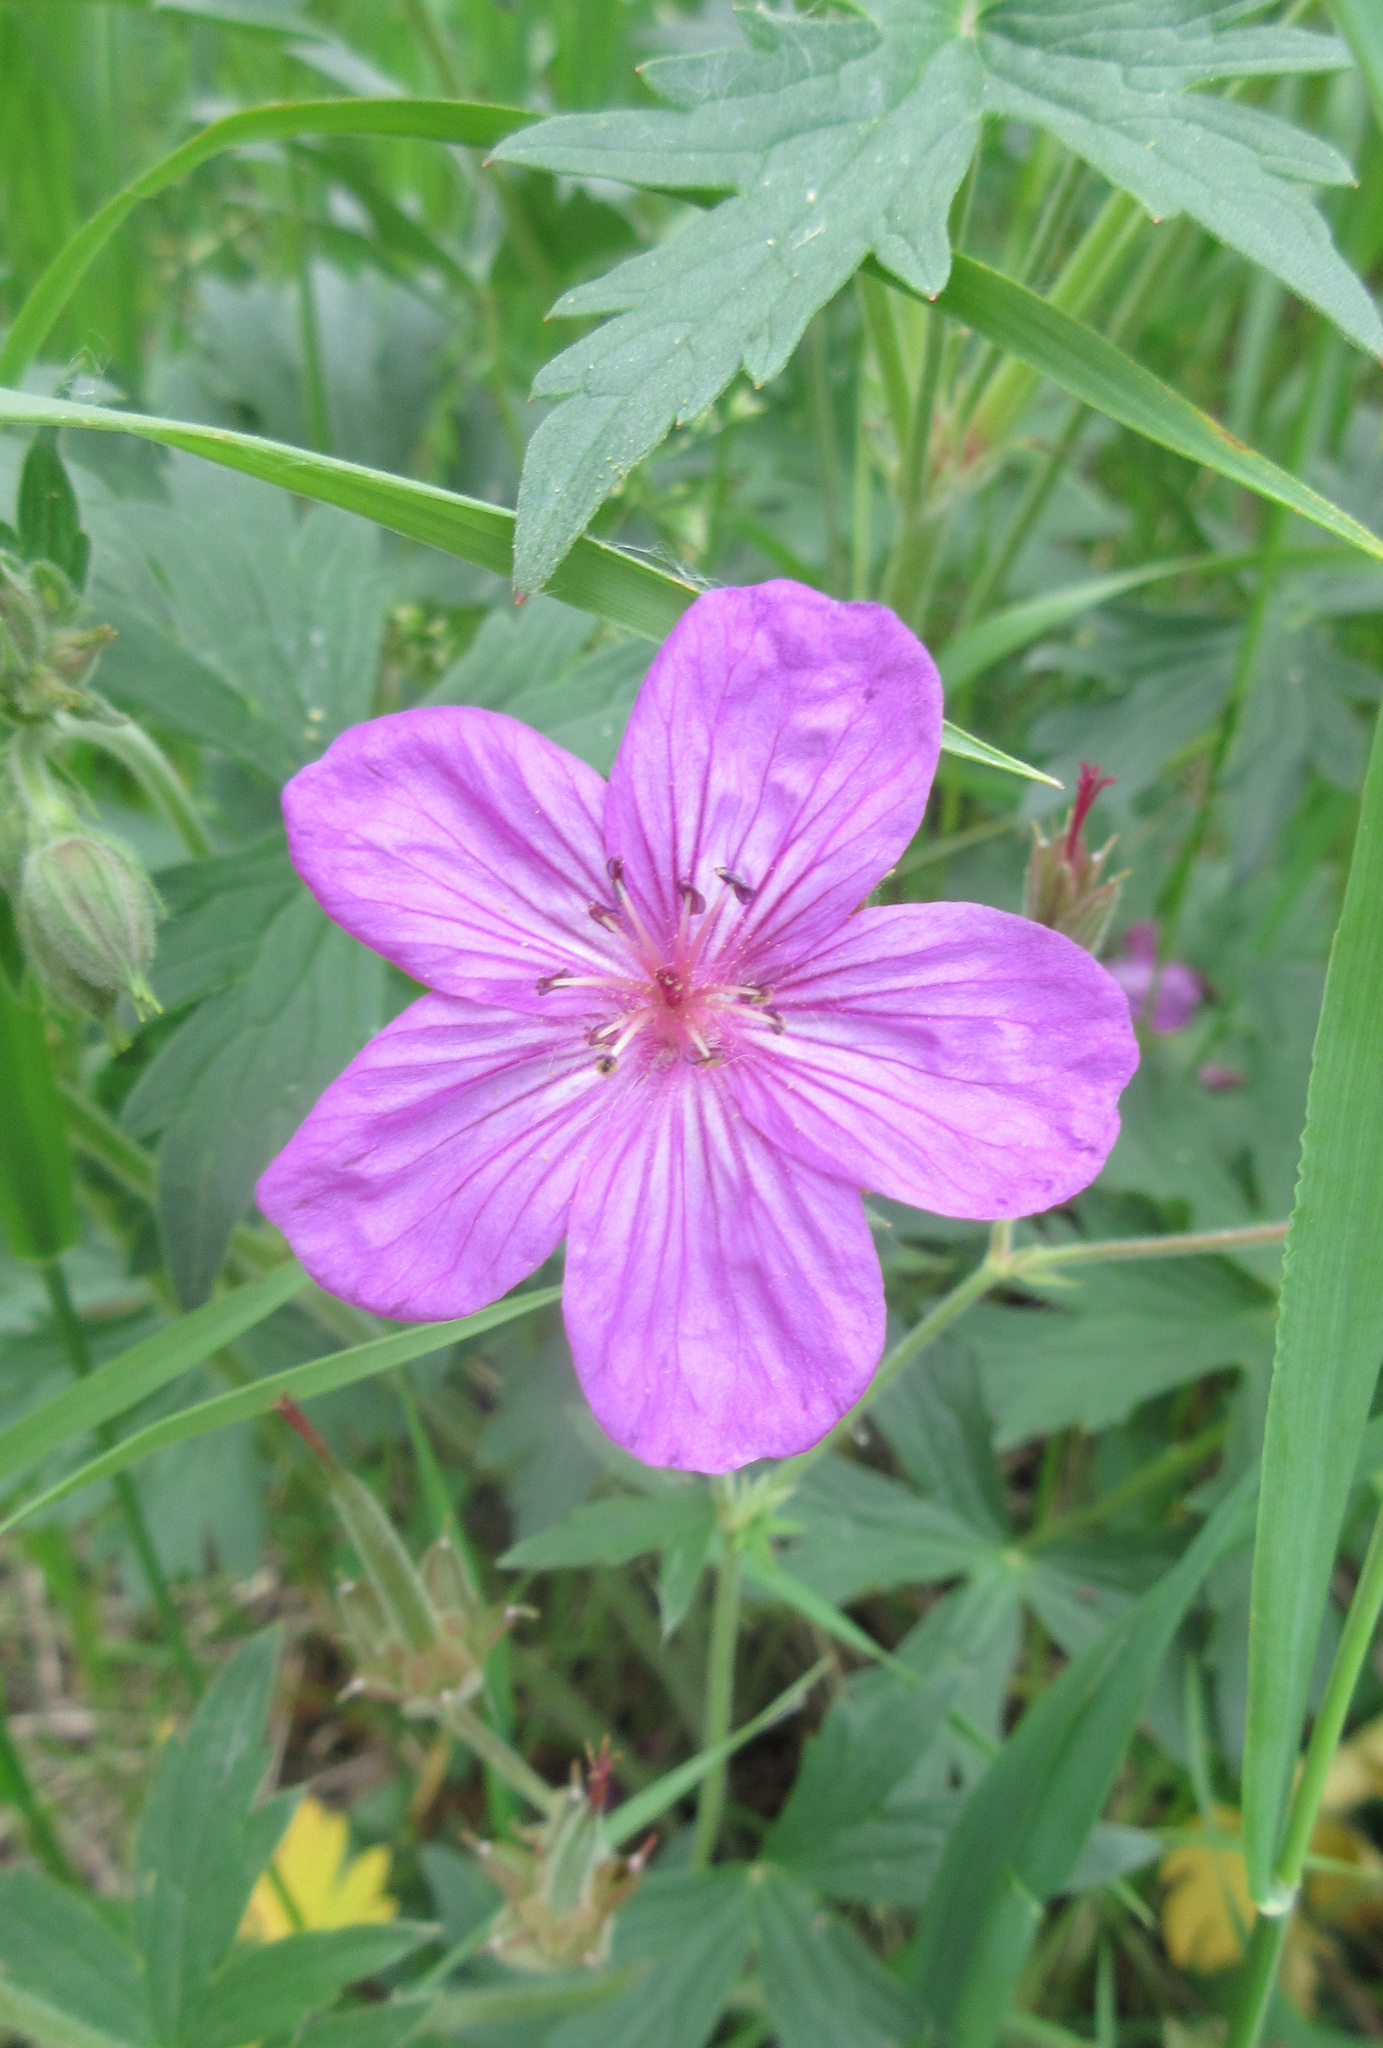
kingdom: Plantae
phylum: Tracheophyta
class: Magnoliopsida
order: Geraniales
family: Geraniaceae
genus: Geranium
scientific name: Geranium viscosissimum
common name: Purple geranium
